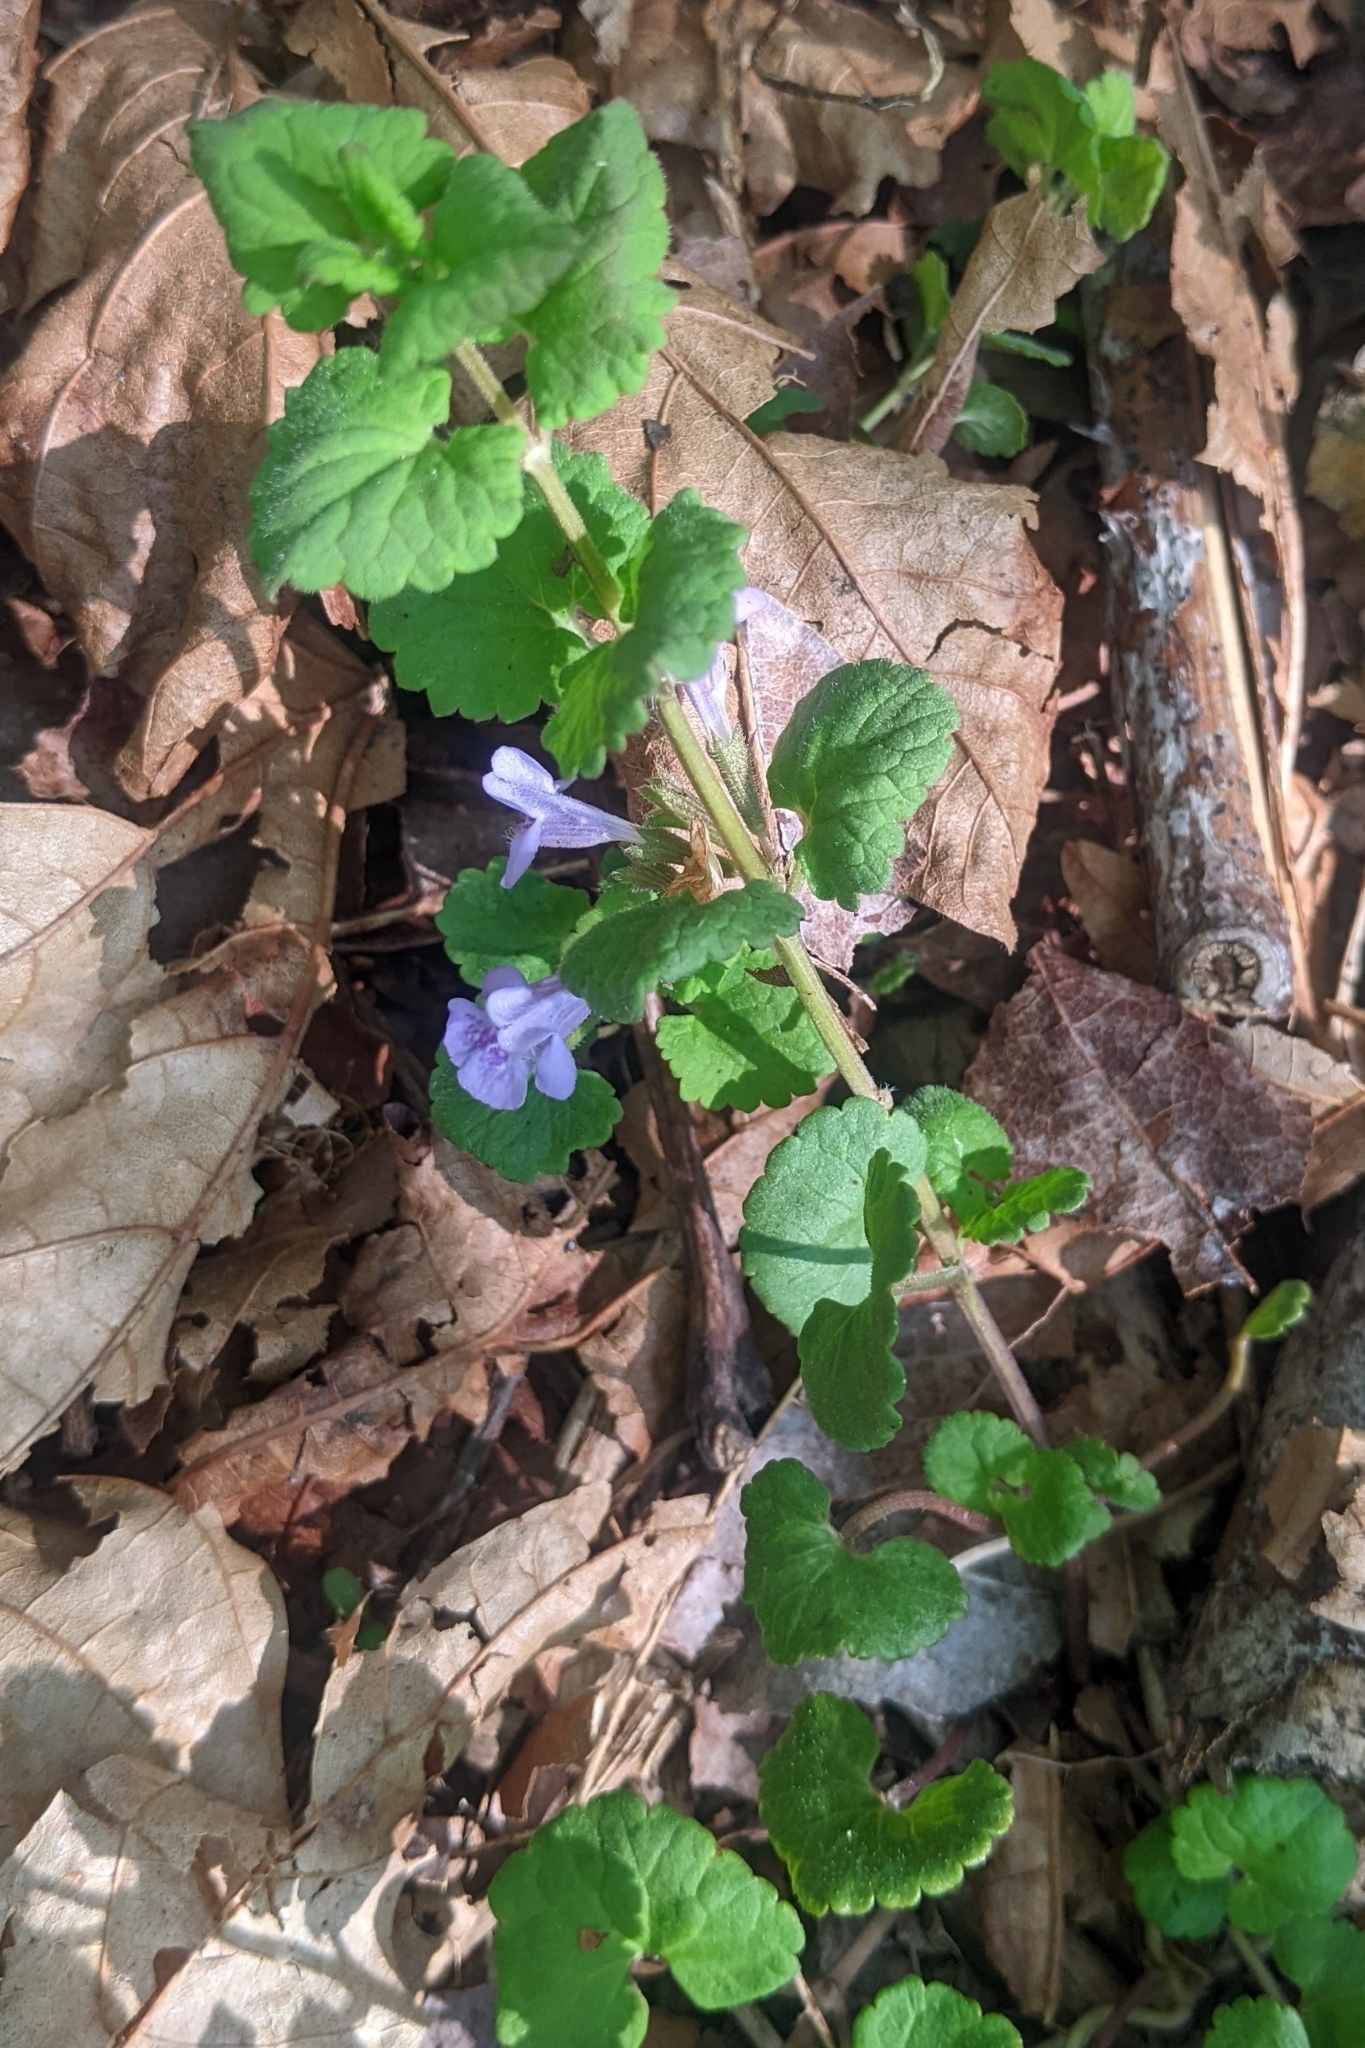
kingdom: Plantae
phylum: Tracheophyta
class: Magnoliopsida
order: Lamiales
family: Lamiaceae
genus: Glechoma
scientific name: Glechoma hederacea
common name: Ground ivy
